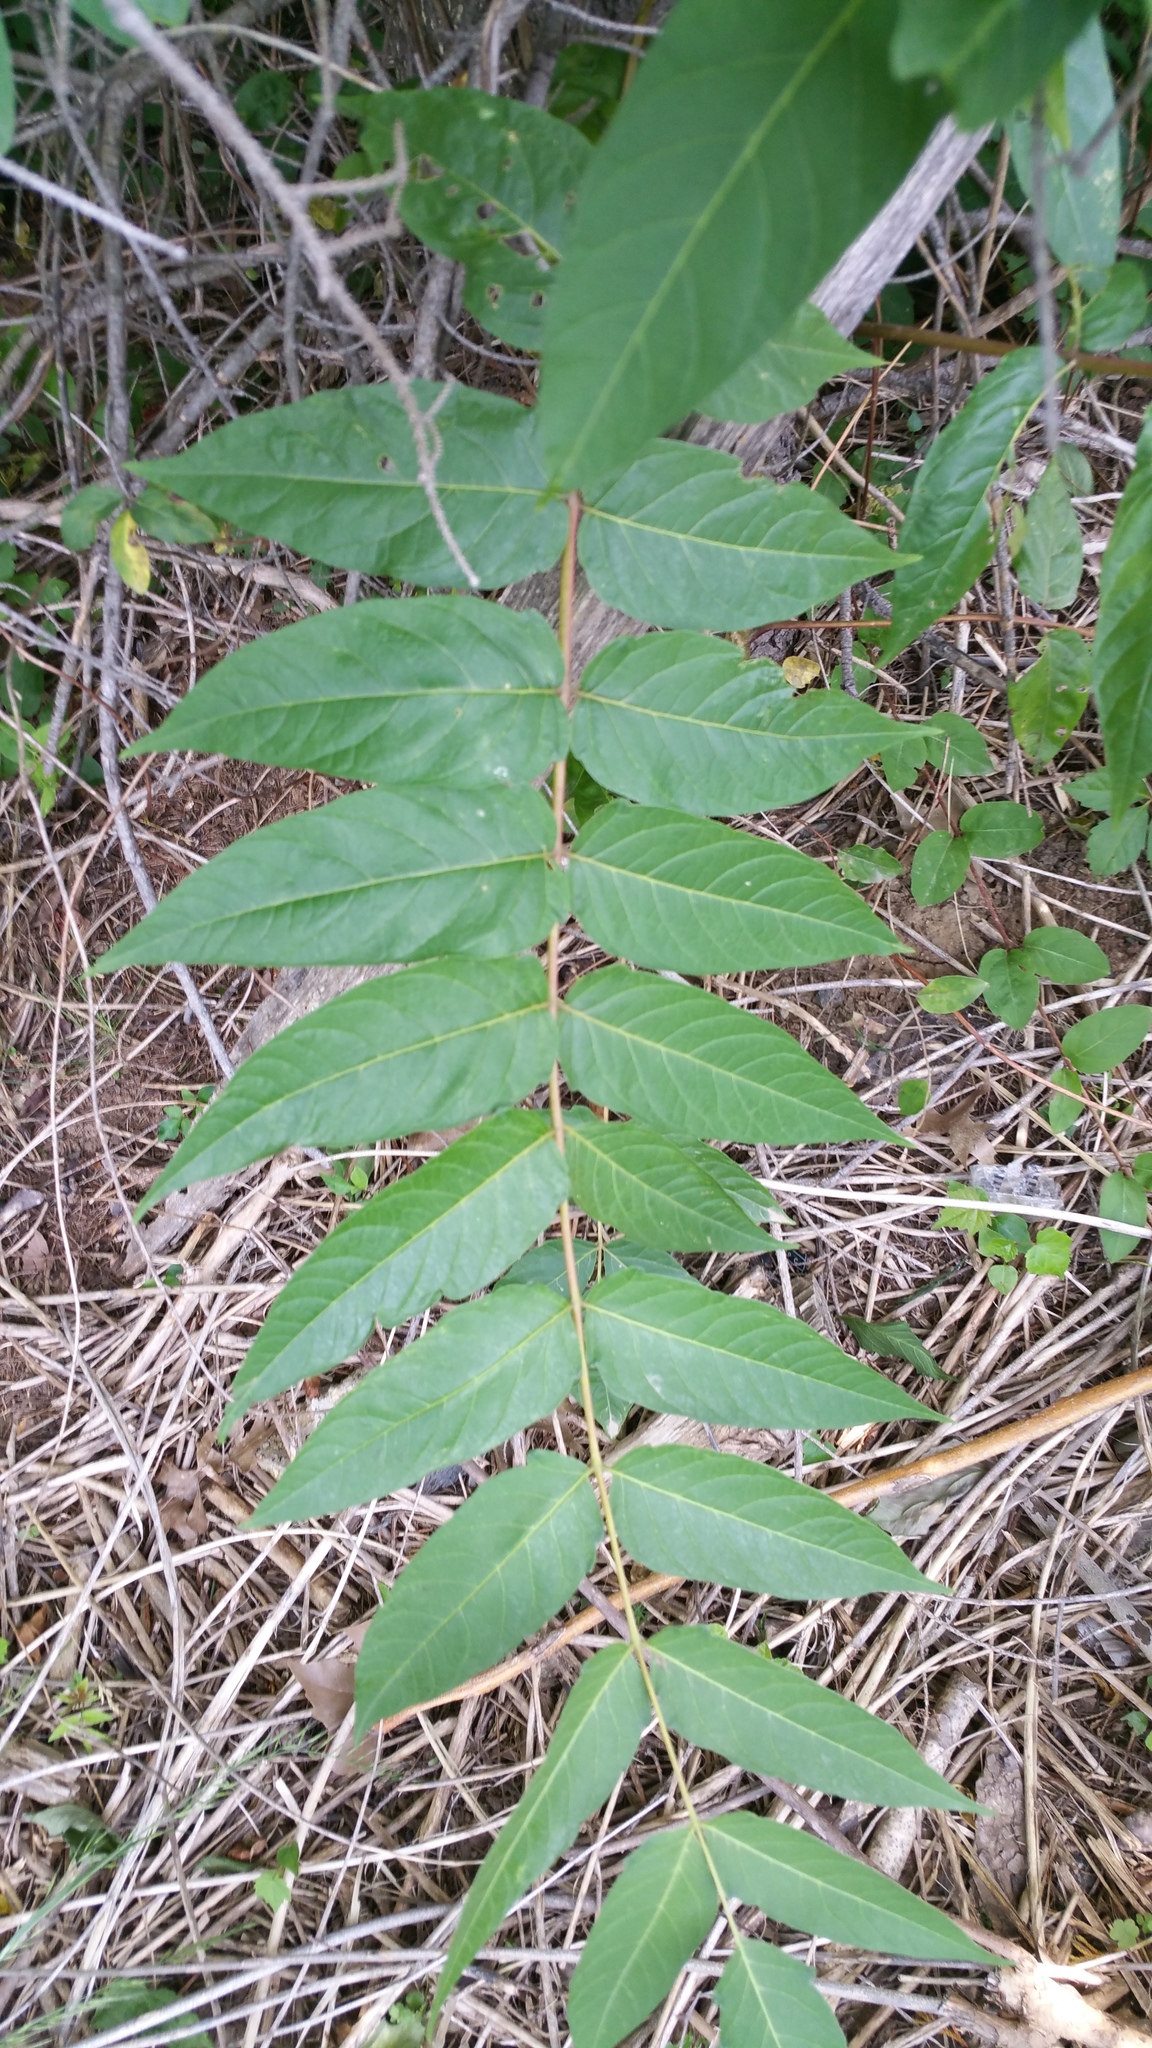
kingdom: Plantae
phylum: Tracheophyta
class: Magnoliopsida
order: Sapindales
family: Simaroubaceae
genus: Ailanthus
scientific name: Ailanthus altissima
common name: Tree-of-heaven
